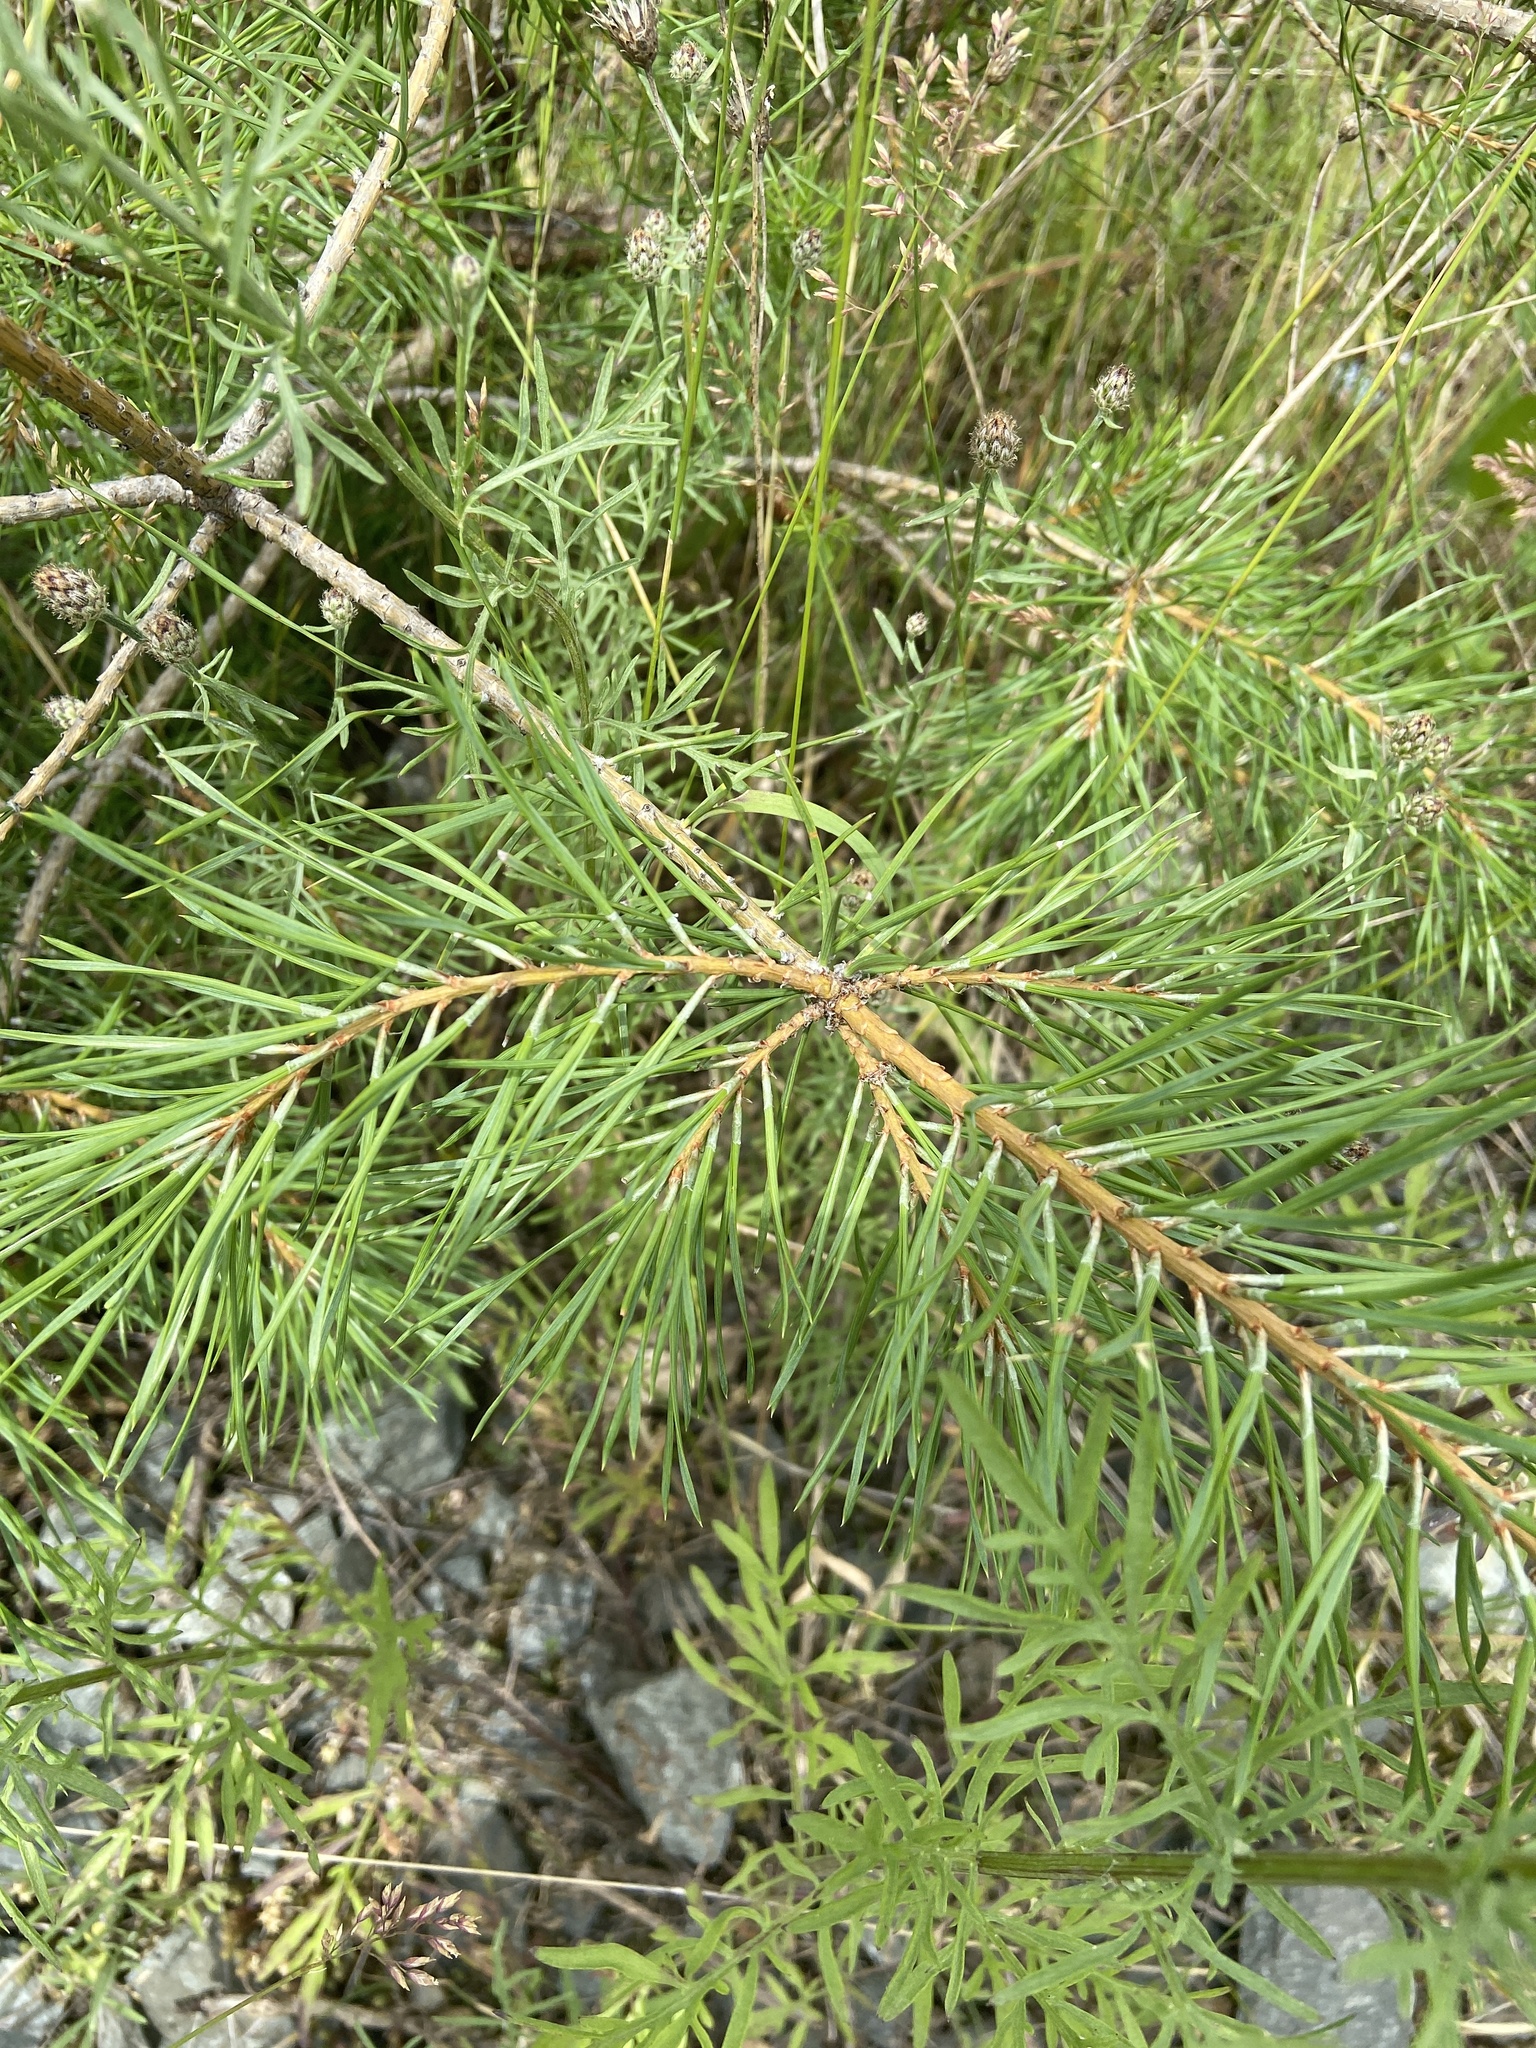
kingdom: Plantae
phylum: Tracheophyta
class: Pinopsida
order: Pinales
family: Pinaceae
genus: Pinus
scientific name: Pinus sylvestris
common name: Scots pine
